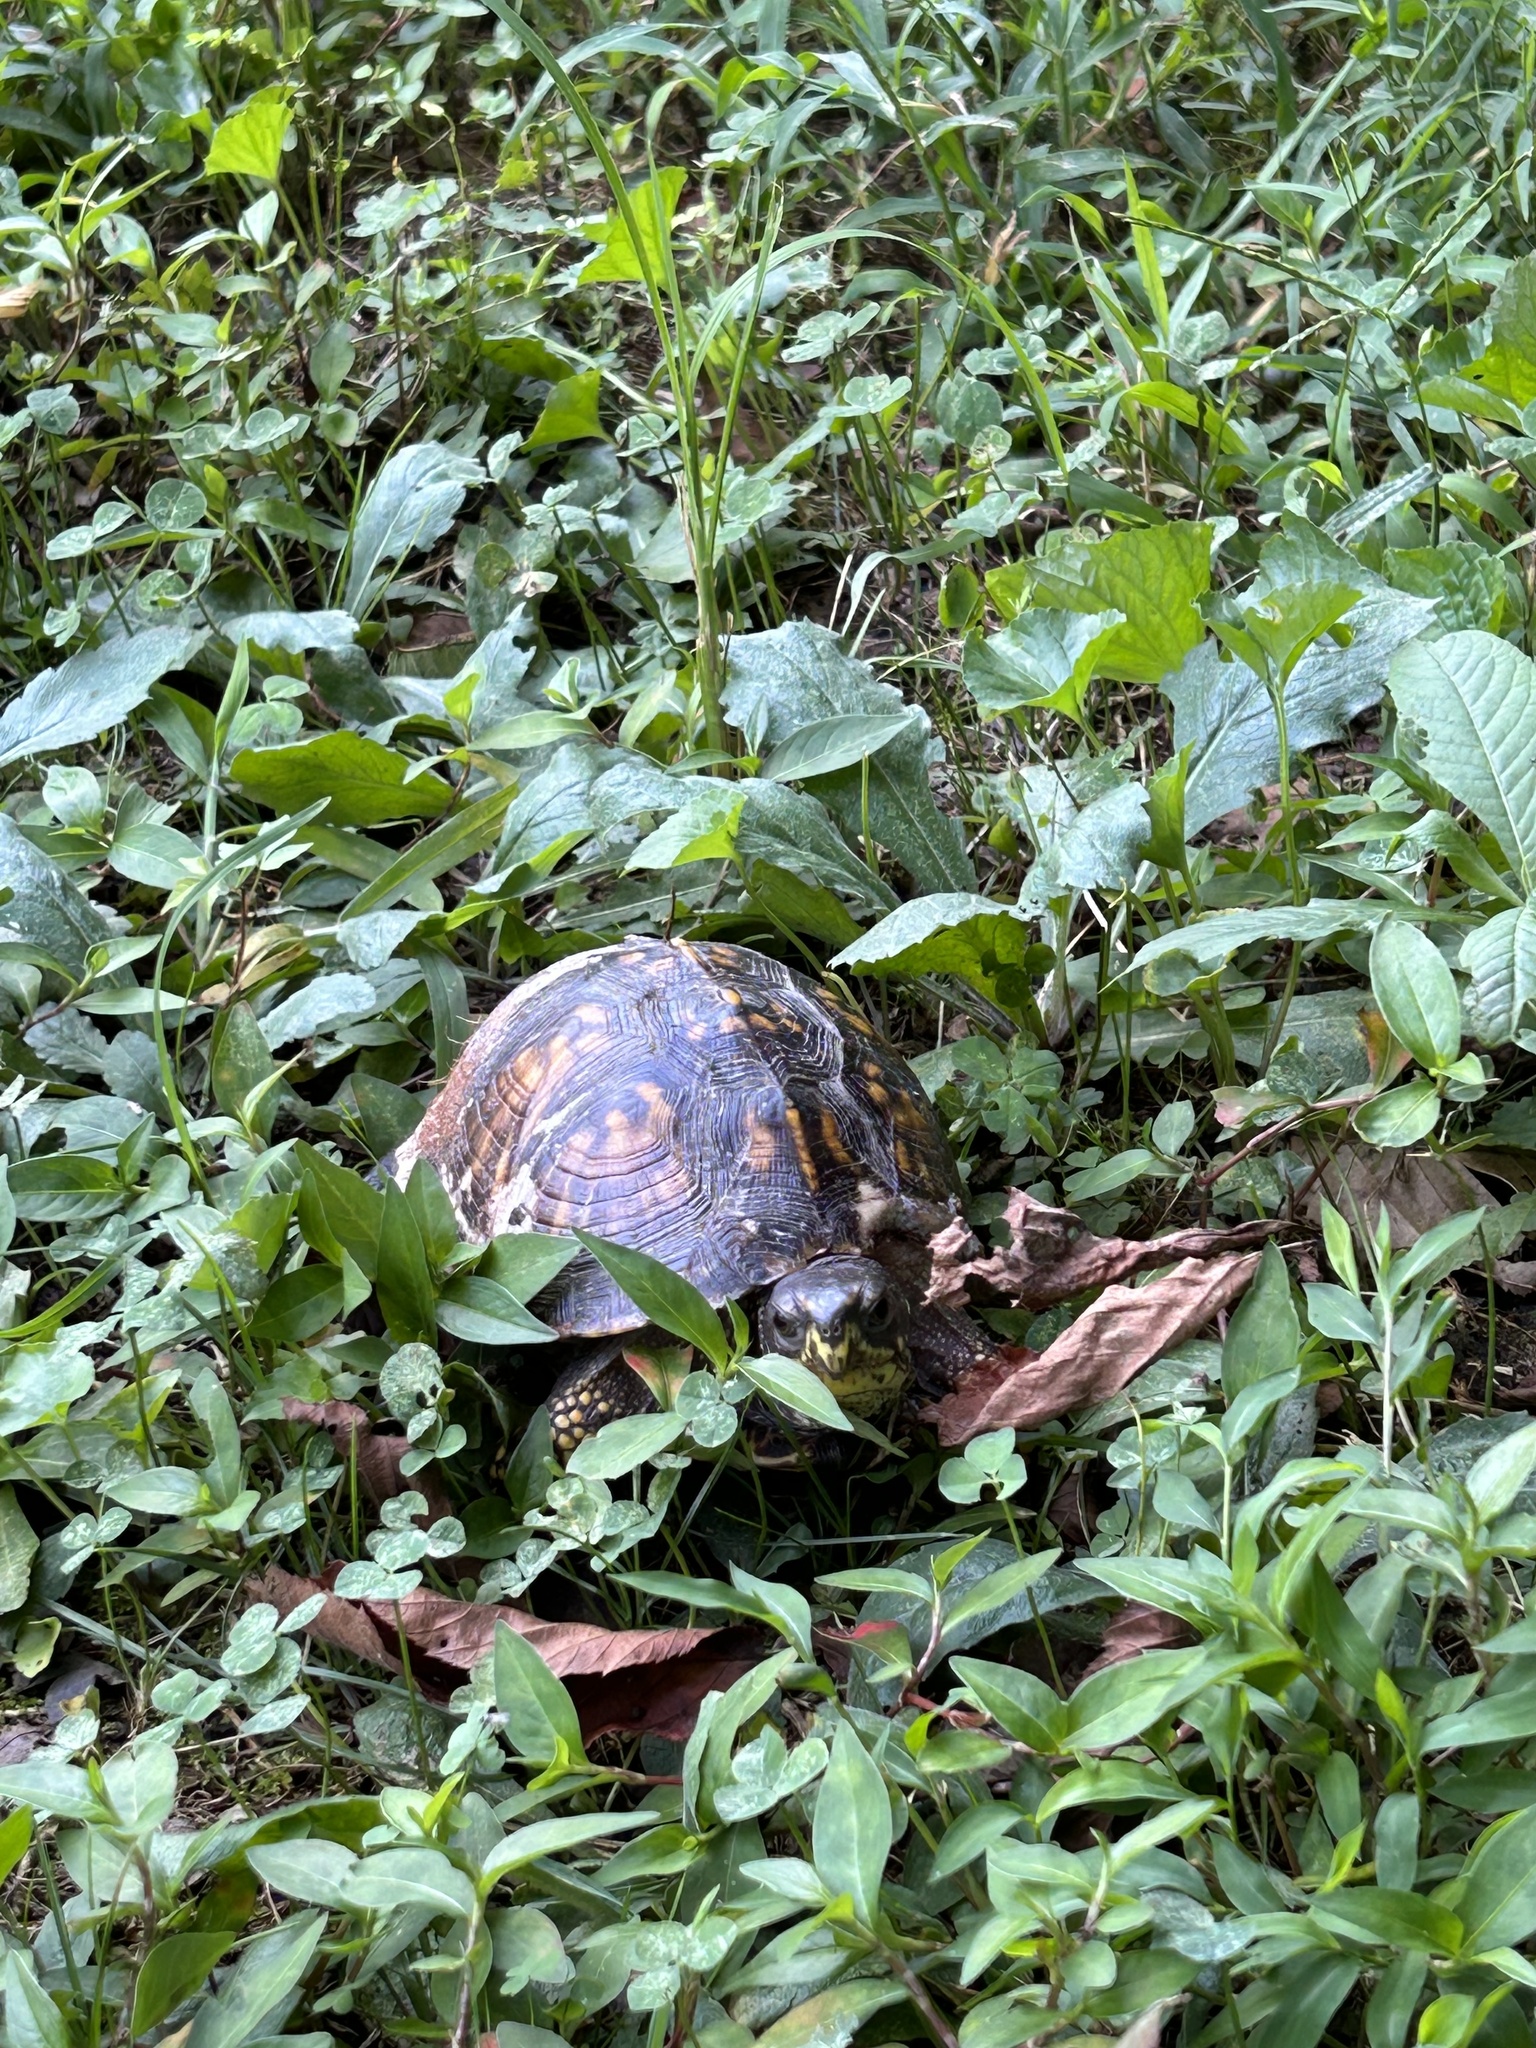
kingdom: Animalia
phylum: Chordata
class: Testudines
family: Emydidae
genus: Terrapene
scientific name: Terrapene carolina
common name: Common box turtle
